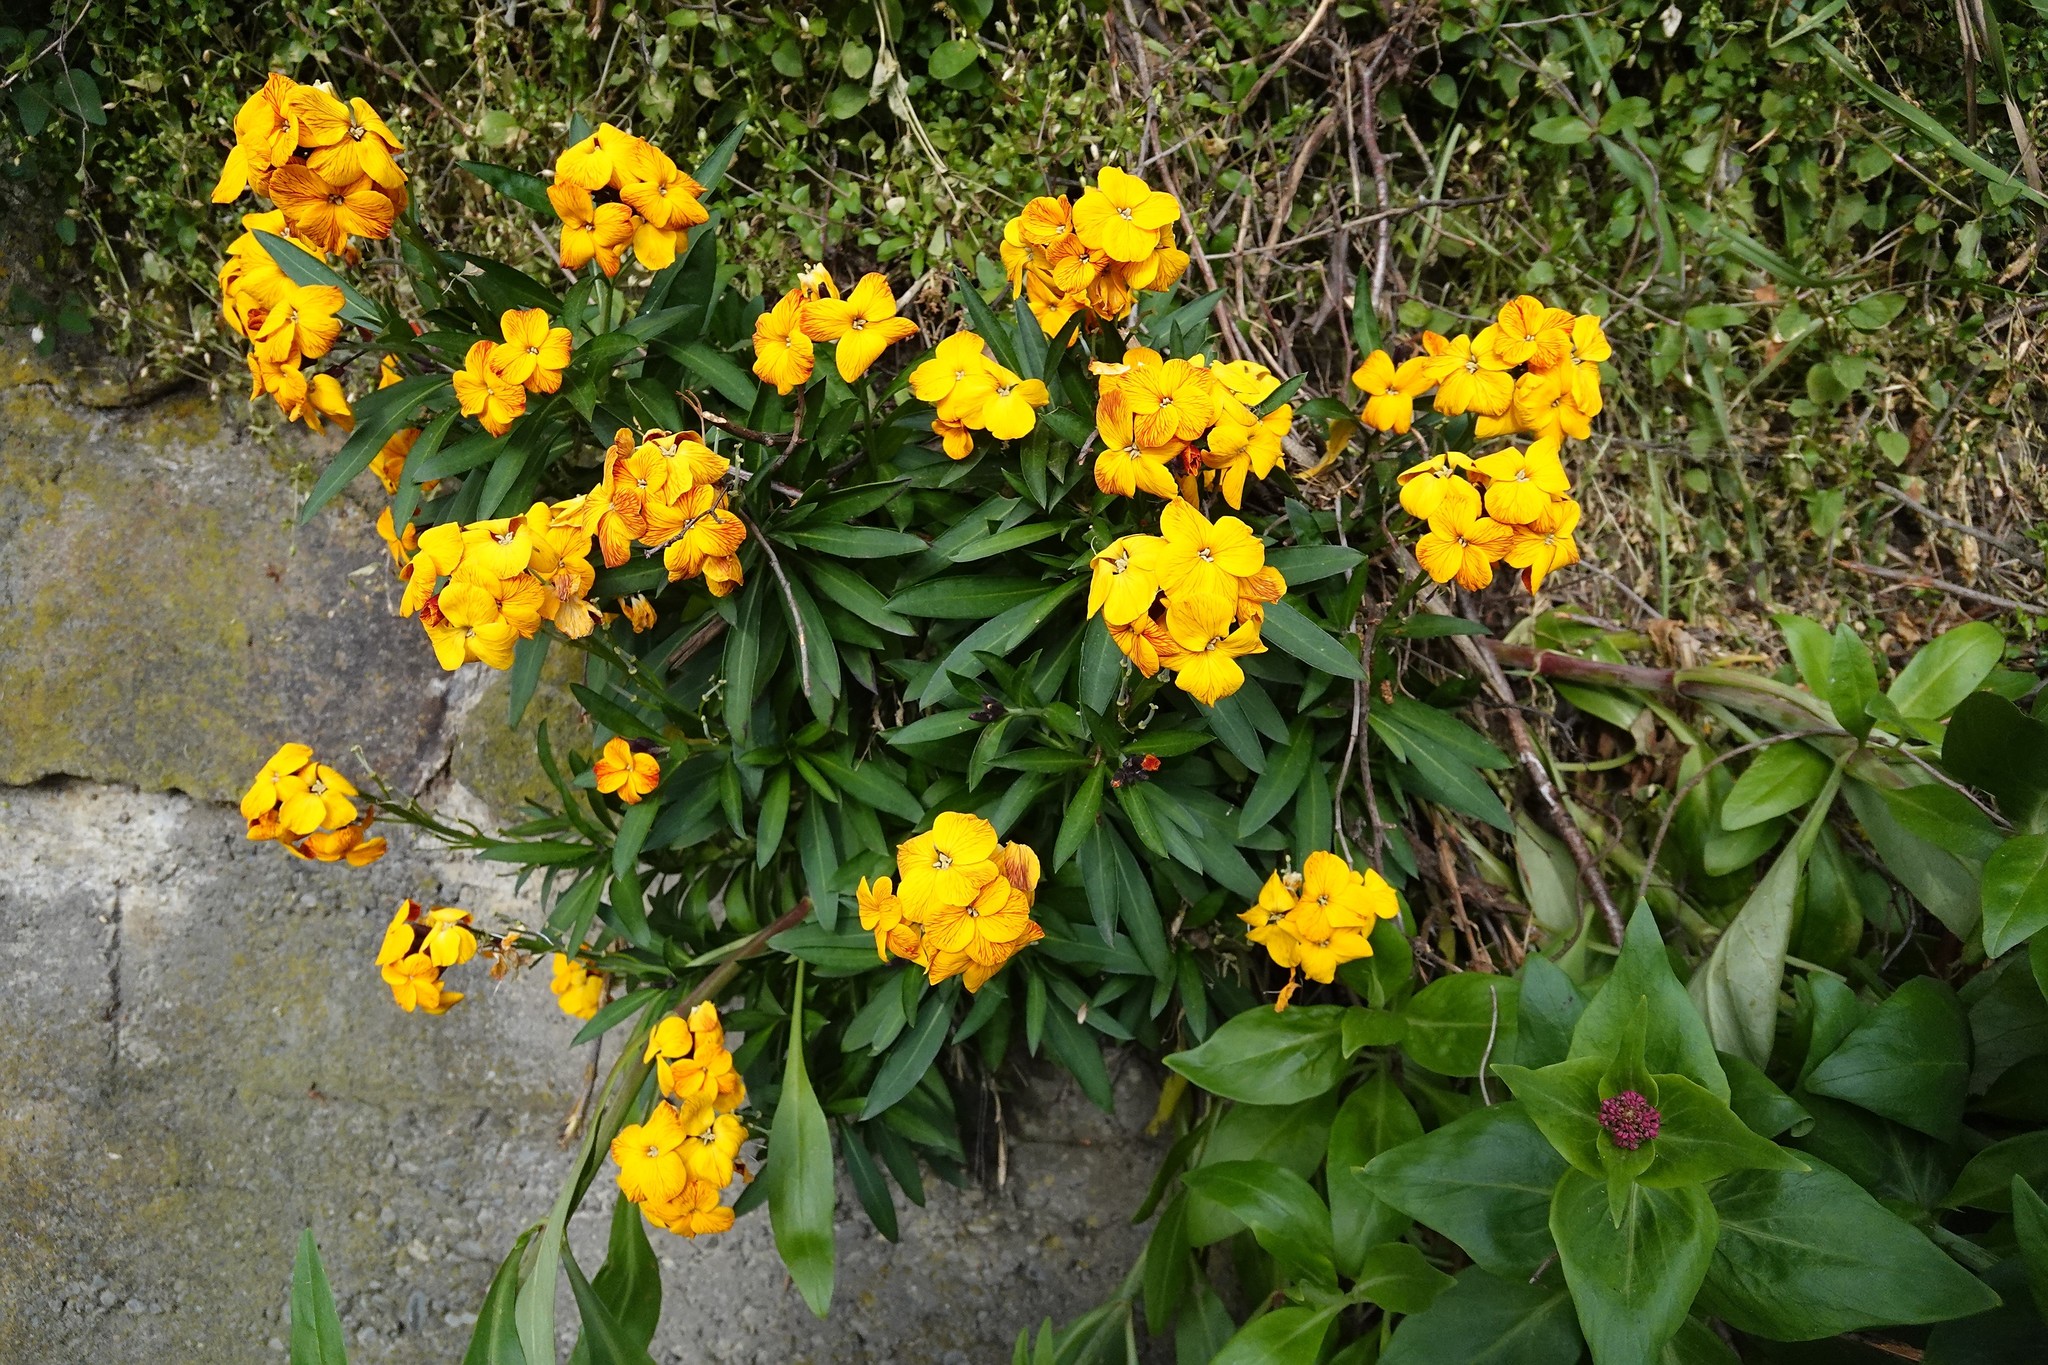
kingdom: Plantae
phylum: Tracheophyta
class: Magnoliopsida
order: Brassicales
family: Brassicaceae
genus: Erysimum
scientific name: Erysimum cheiri
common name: Wallflower
